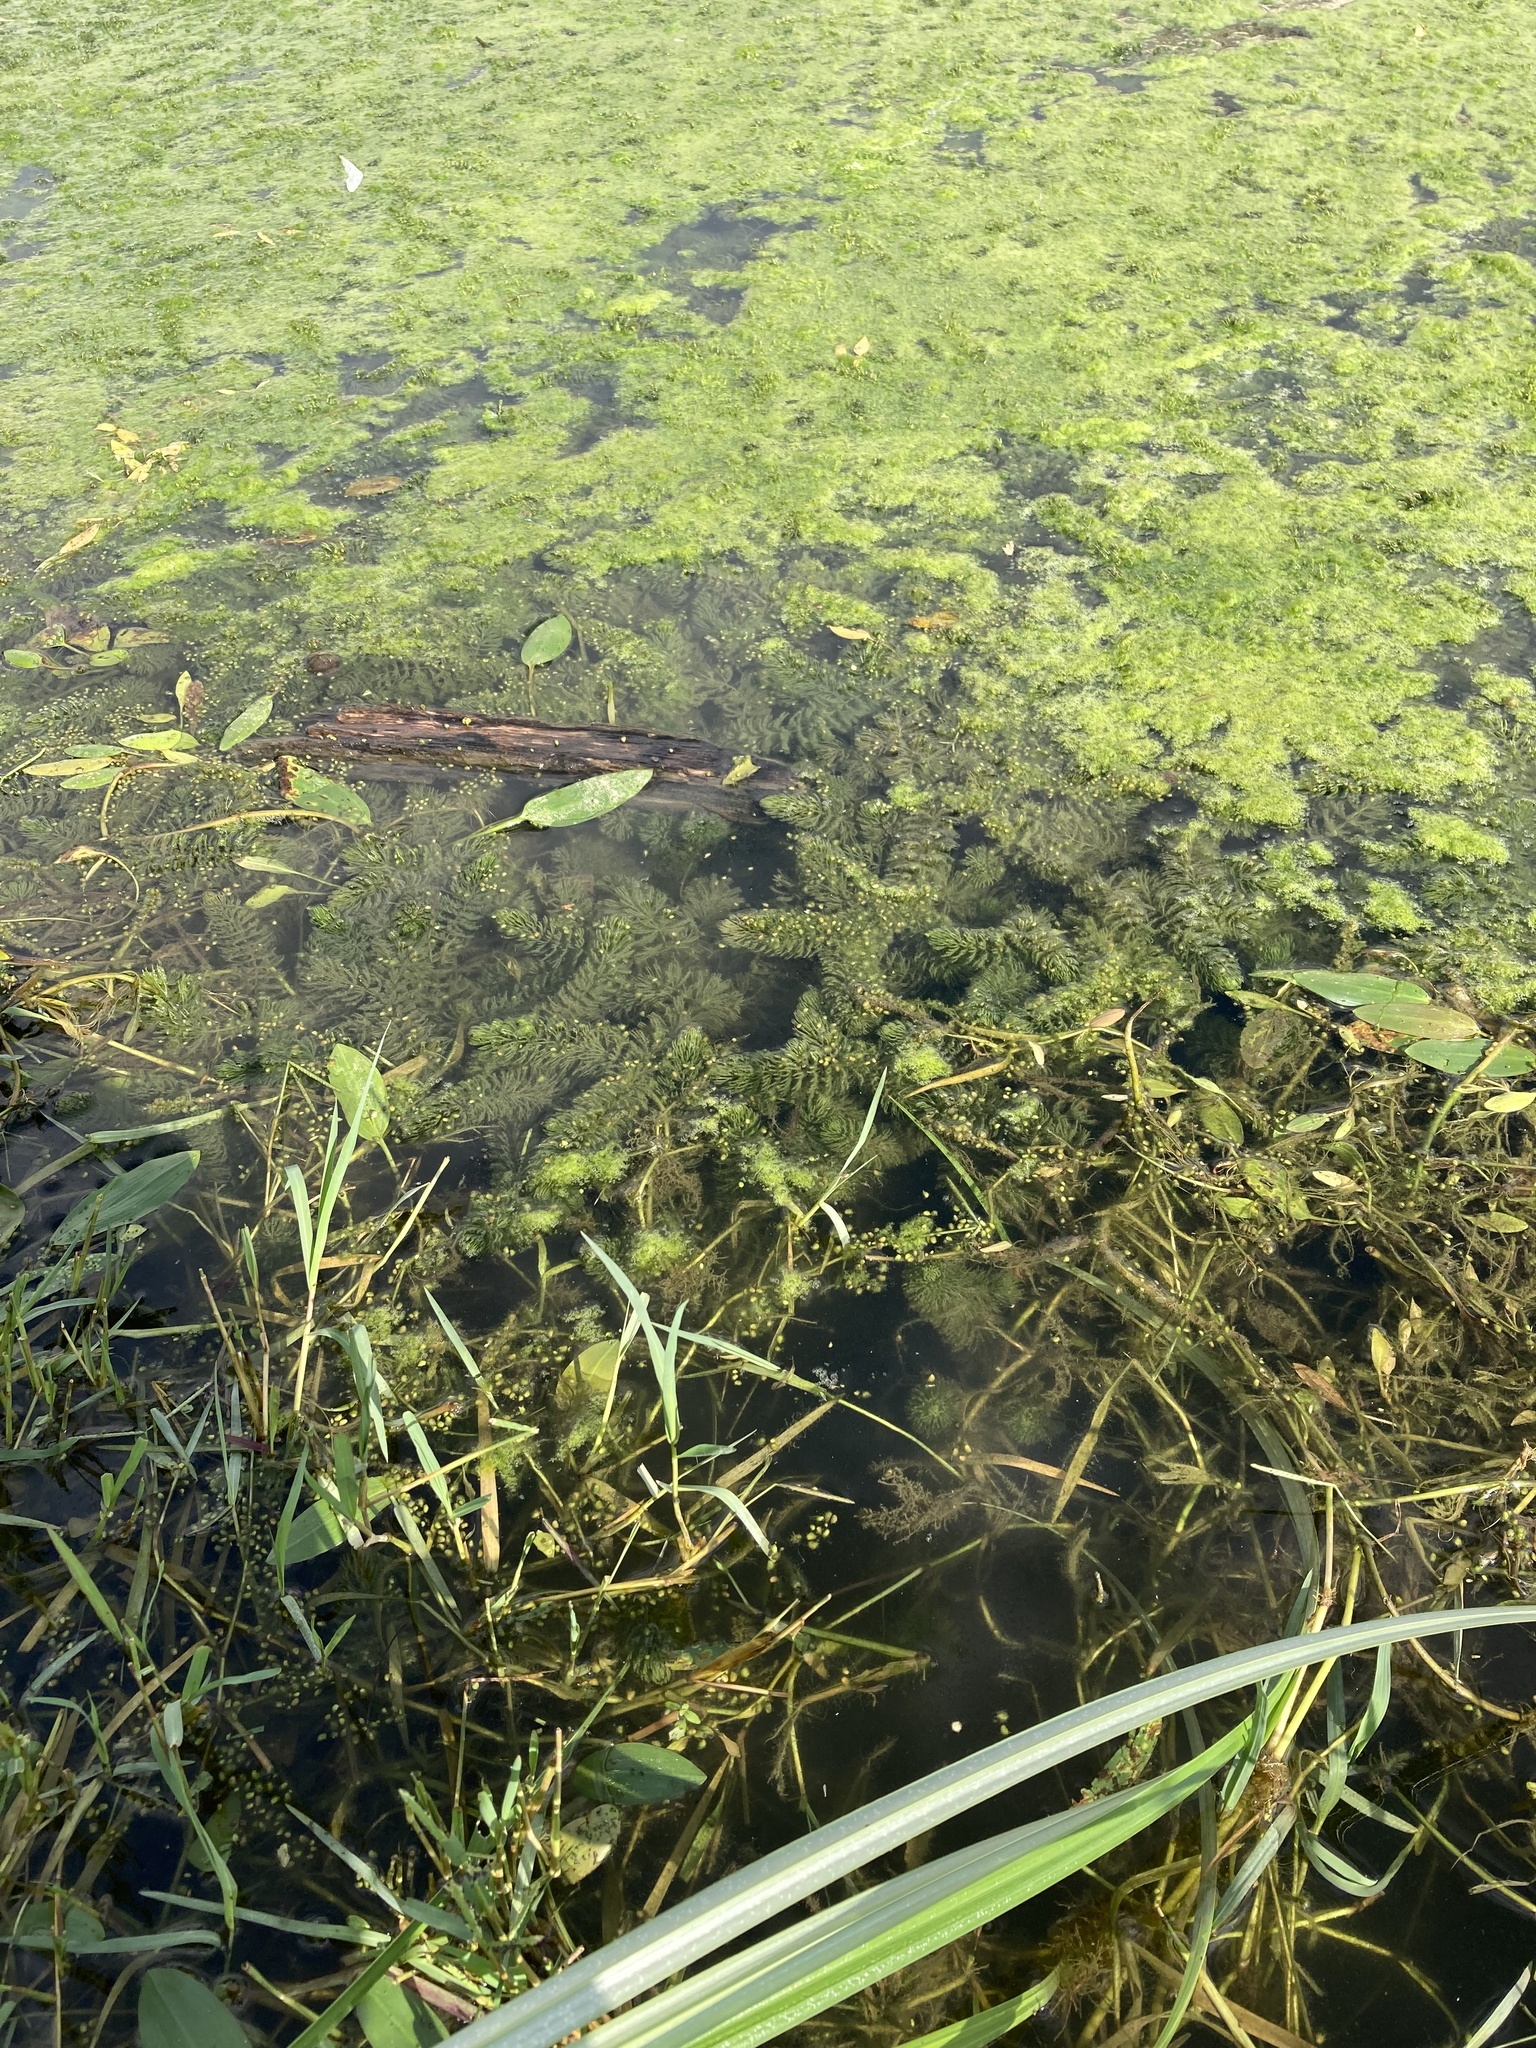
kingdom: Plantae
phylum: Tracheophyta
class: Magnoliopsida
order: Ceratophyllales
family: Ceratophyllaceae
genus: Ceratophyllum
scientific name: Ceratophyllum demersum
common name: Rigid hornwort
